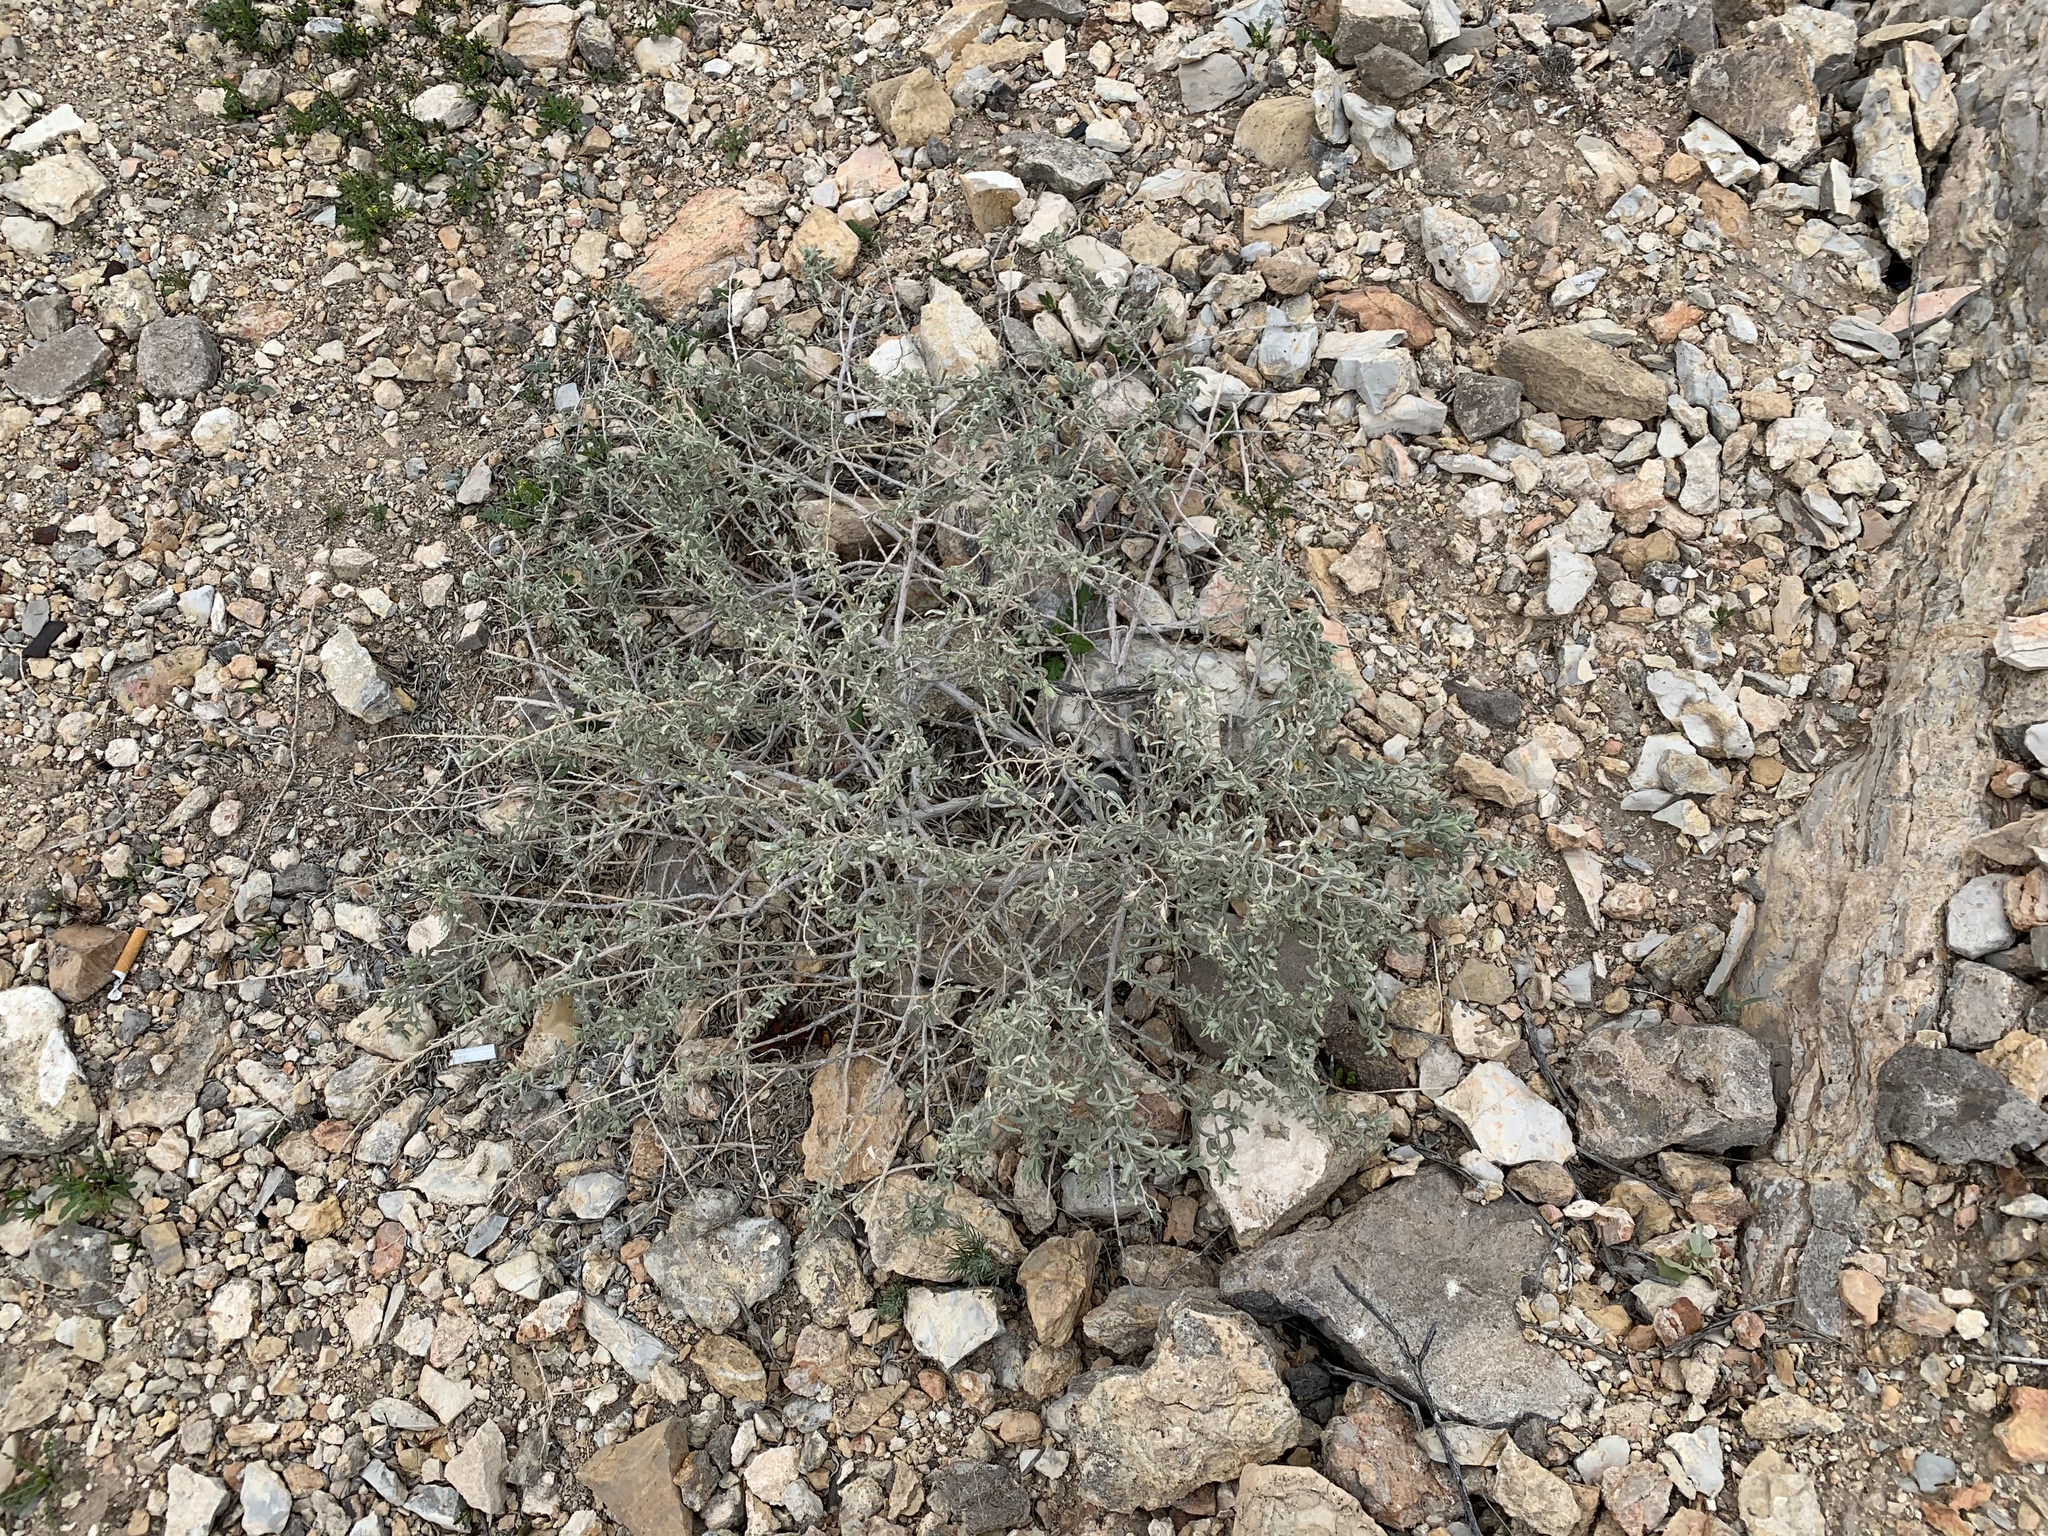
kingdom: Plantae
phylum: Tracheophyta
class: Magnoliopsida
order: Caryophyllales
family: Amaranthaceae
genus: Atriplex
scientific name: Atriplex canescens
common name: Four-wing saltbush
